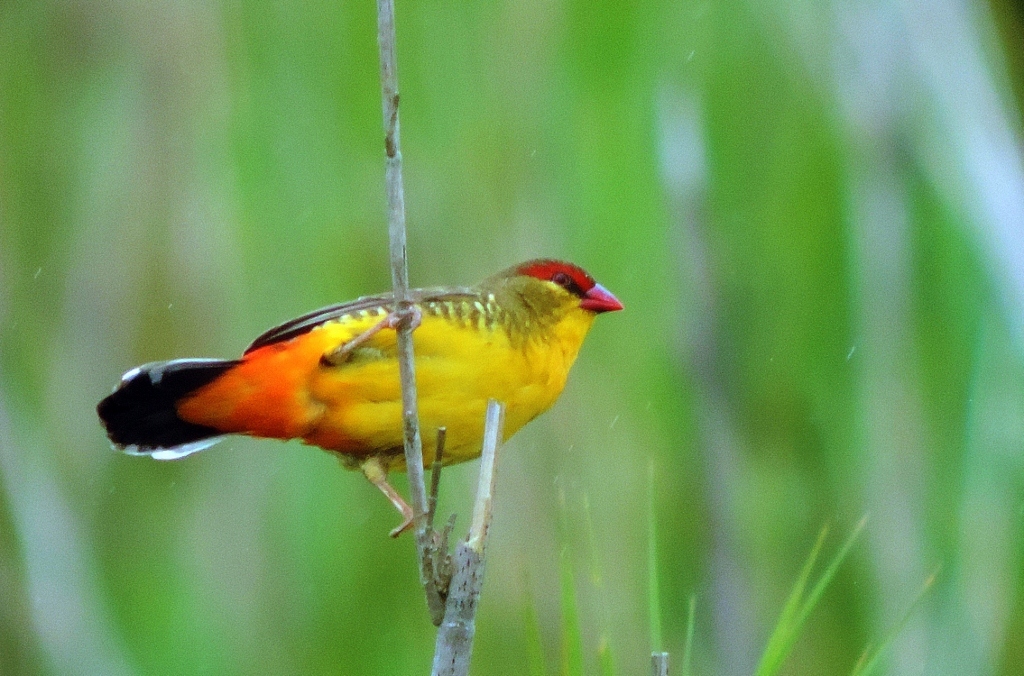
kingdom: Animalia
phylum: Chordata
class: Aves
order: Passeriformes
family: Estrildidae
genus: Amandava
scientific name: Amandava subflava
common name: Orange-breasted waxbill
